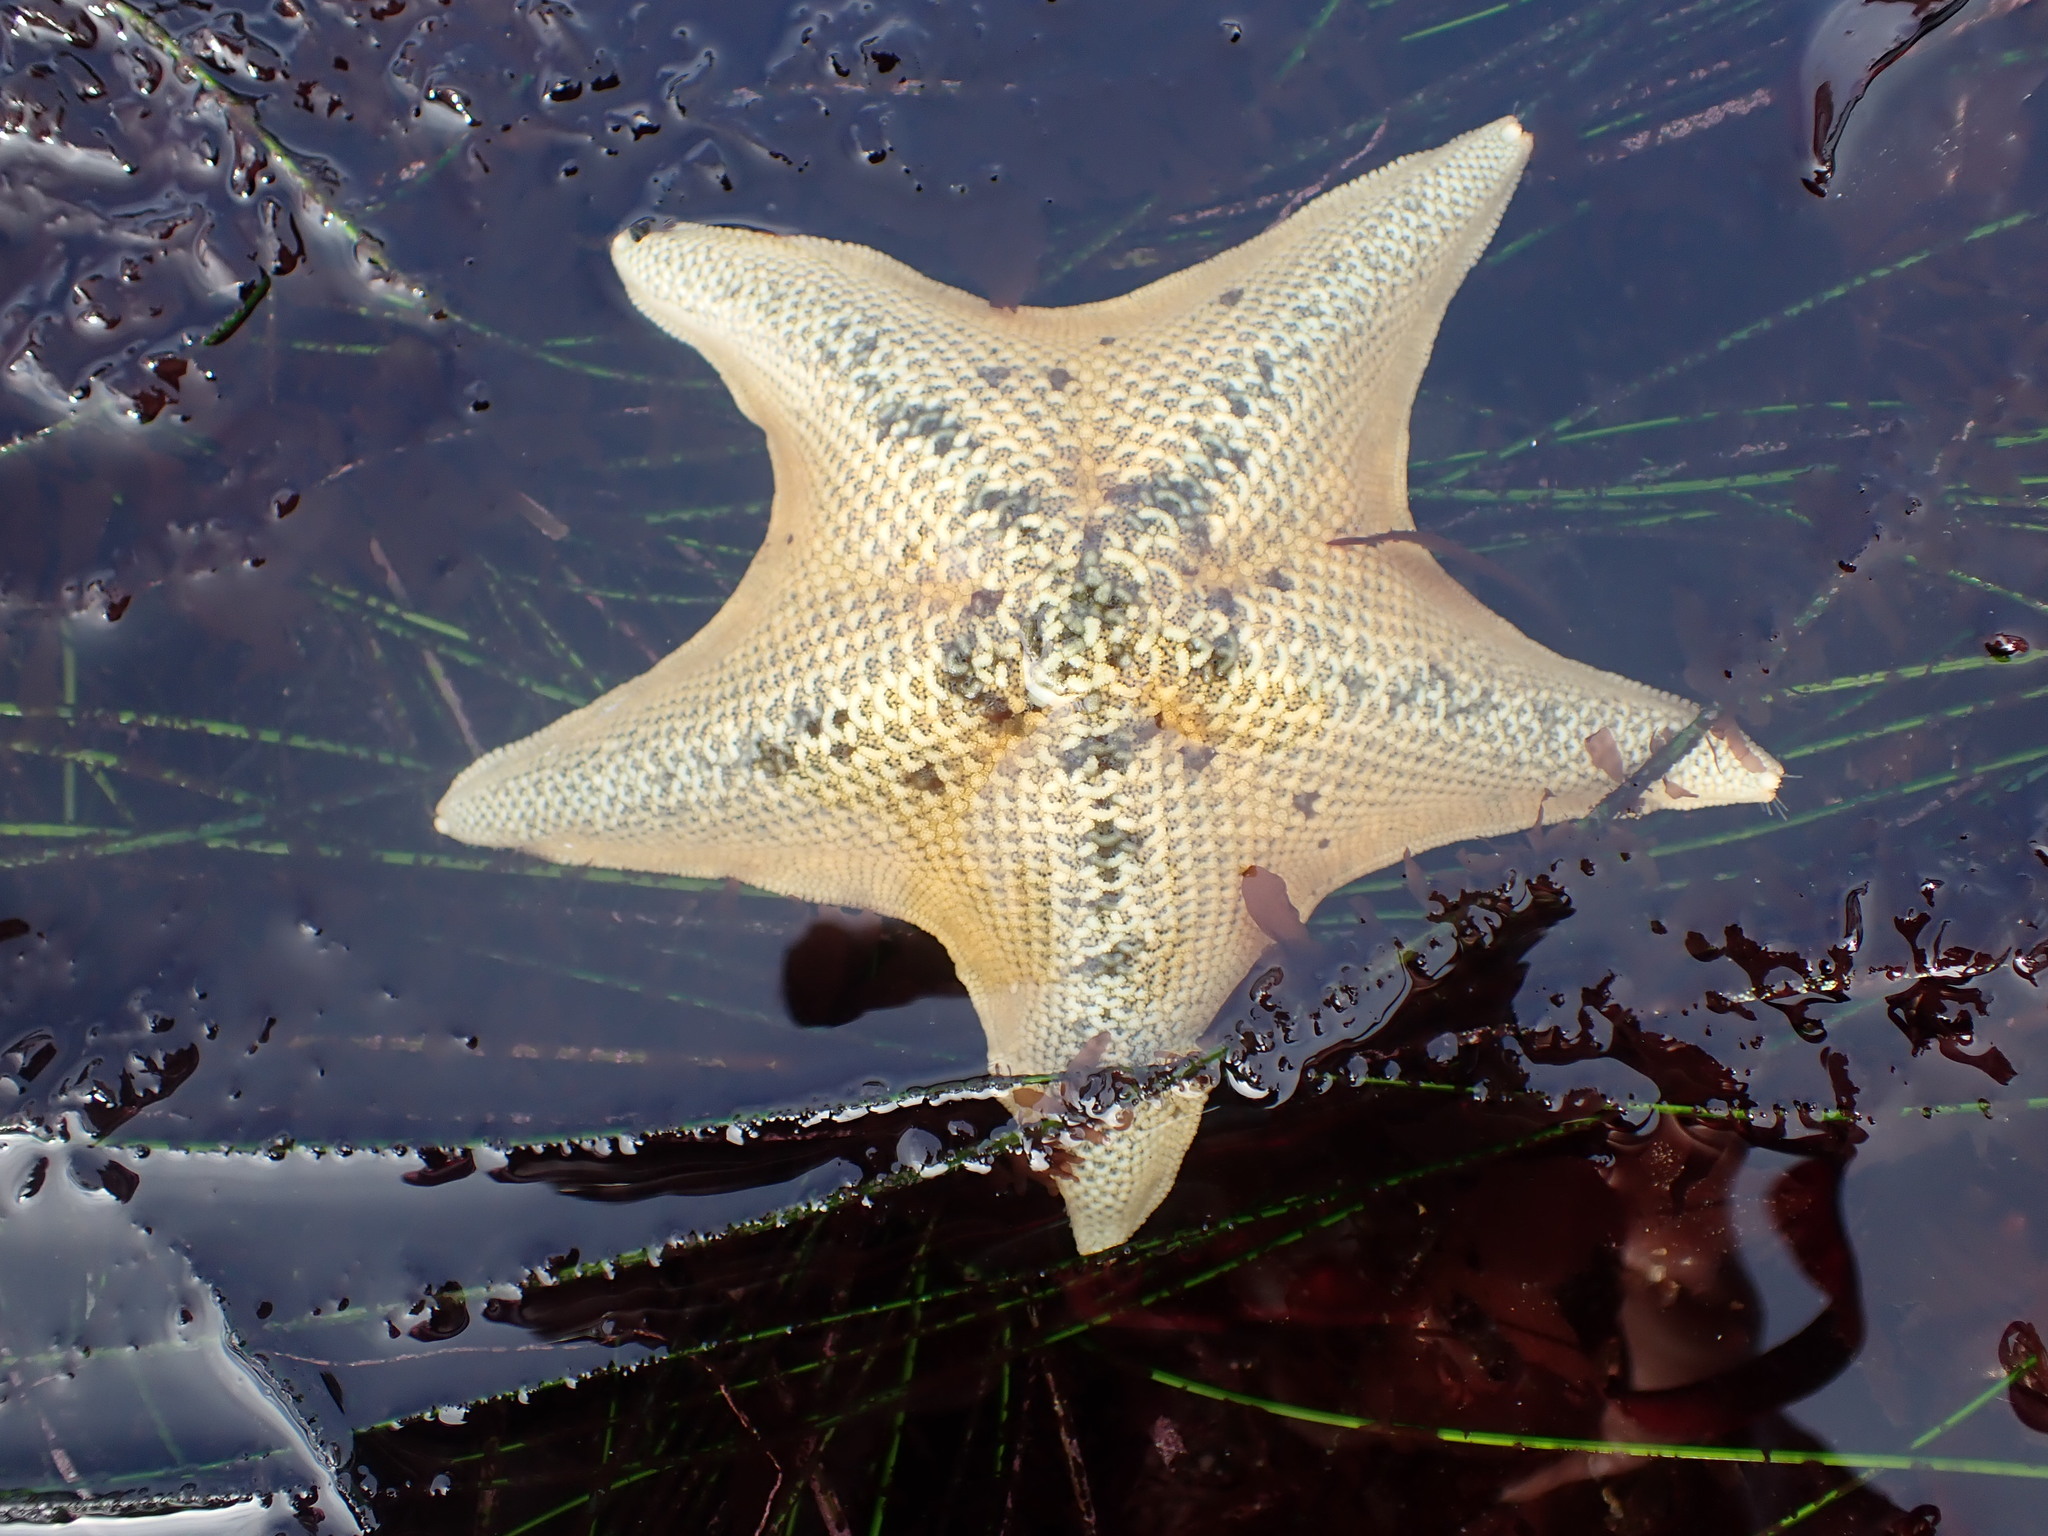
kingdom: Animalia
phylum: Echinodermata
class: Asteroidea
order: Valvatida
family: Asterinidae
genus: Patiria
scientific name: Patiria miniata
